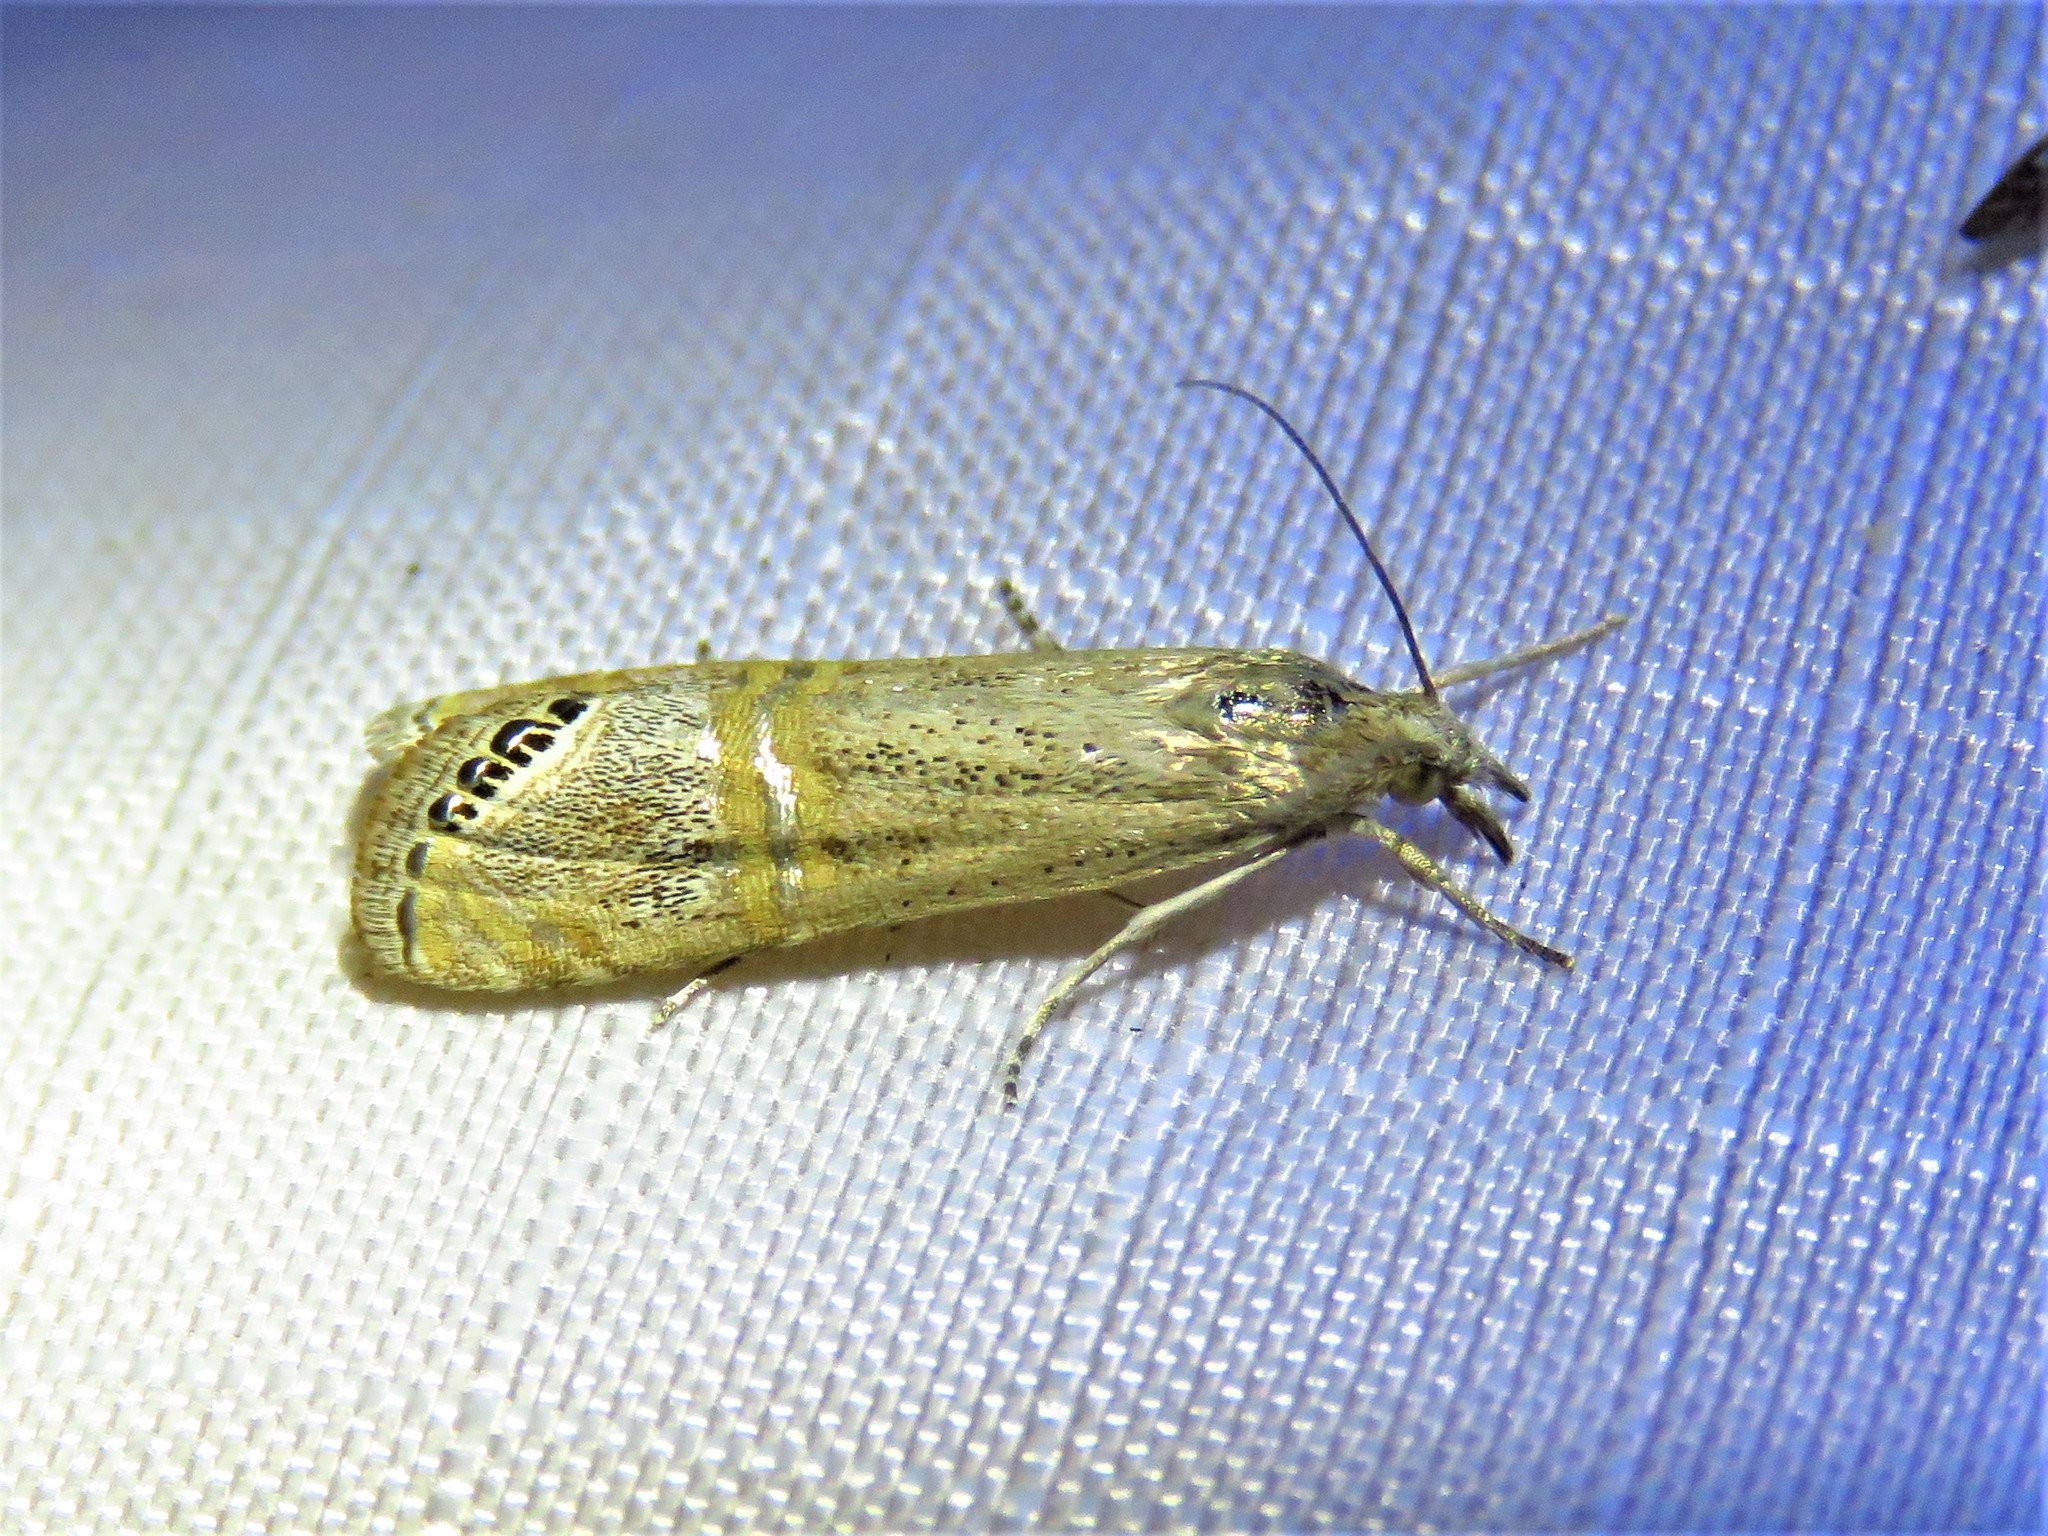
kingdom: Animalia
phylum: Arthropoda
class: Insecta
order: Lepidoptera
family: Crambidae
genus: Euchromius
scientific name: Euchromius ocellea
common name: Necklace veneer moth
